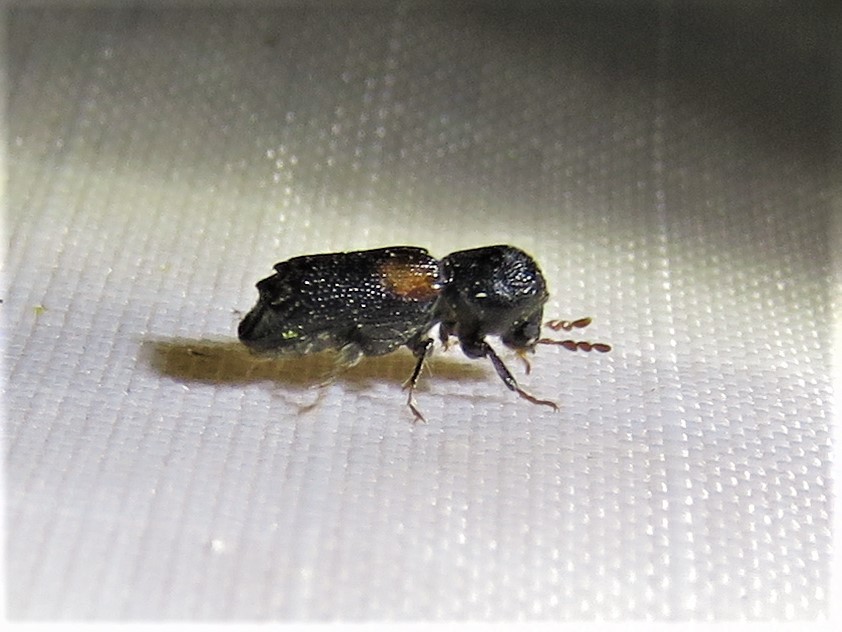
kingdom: Animalia
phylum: Arthropoda
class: Insecta
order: Coleoptera
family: Bostrichidae
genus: Xylobiops
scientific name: Xylobiops basilaris
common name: Red-shouldered bostrichid
